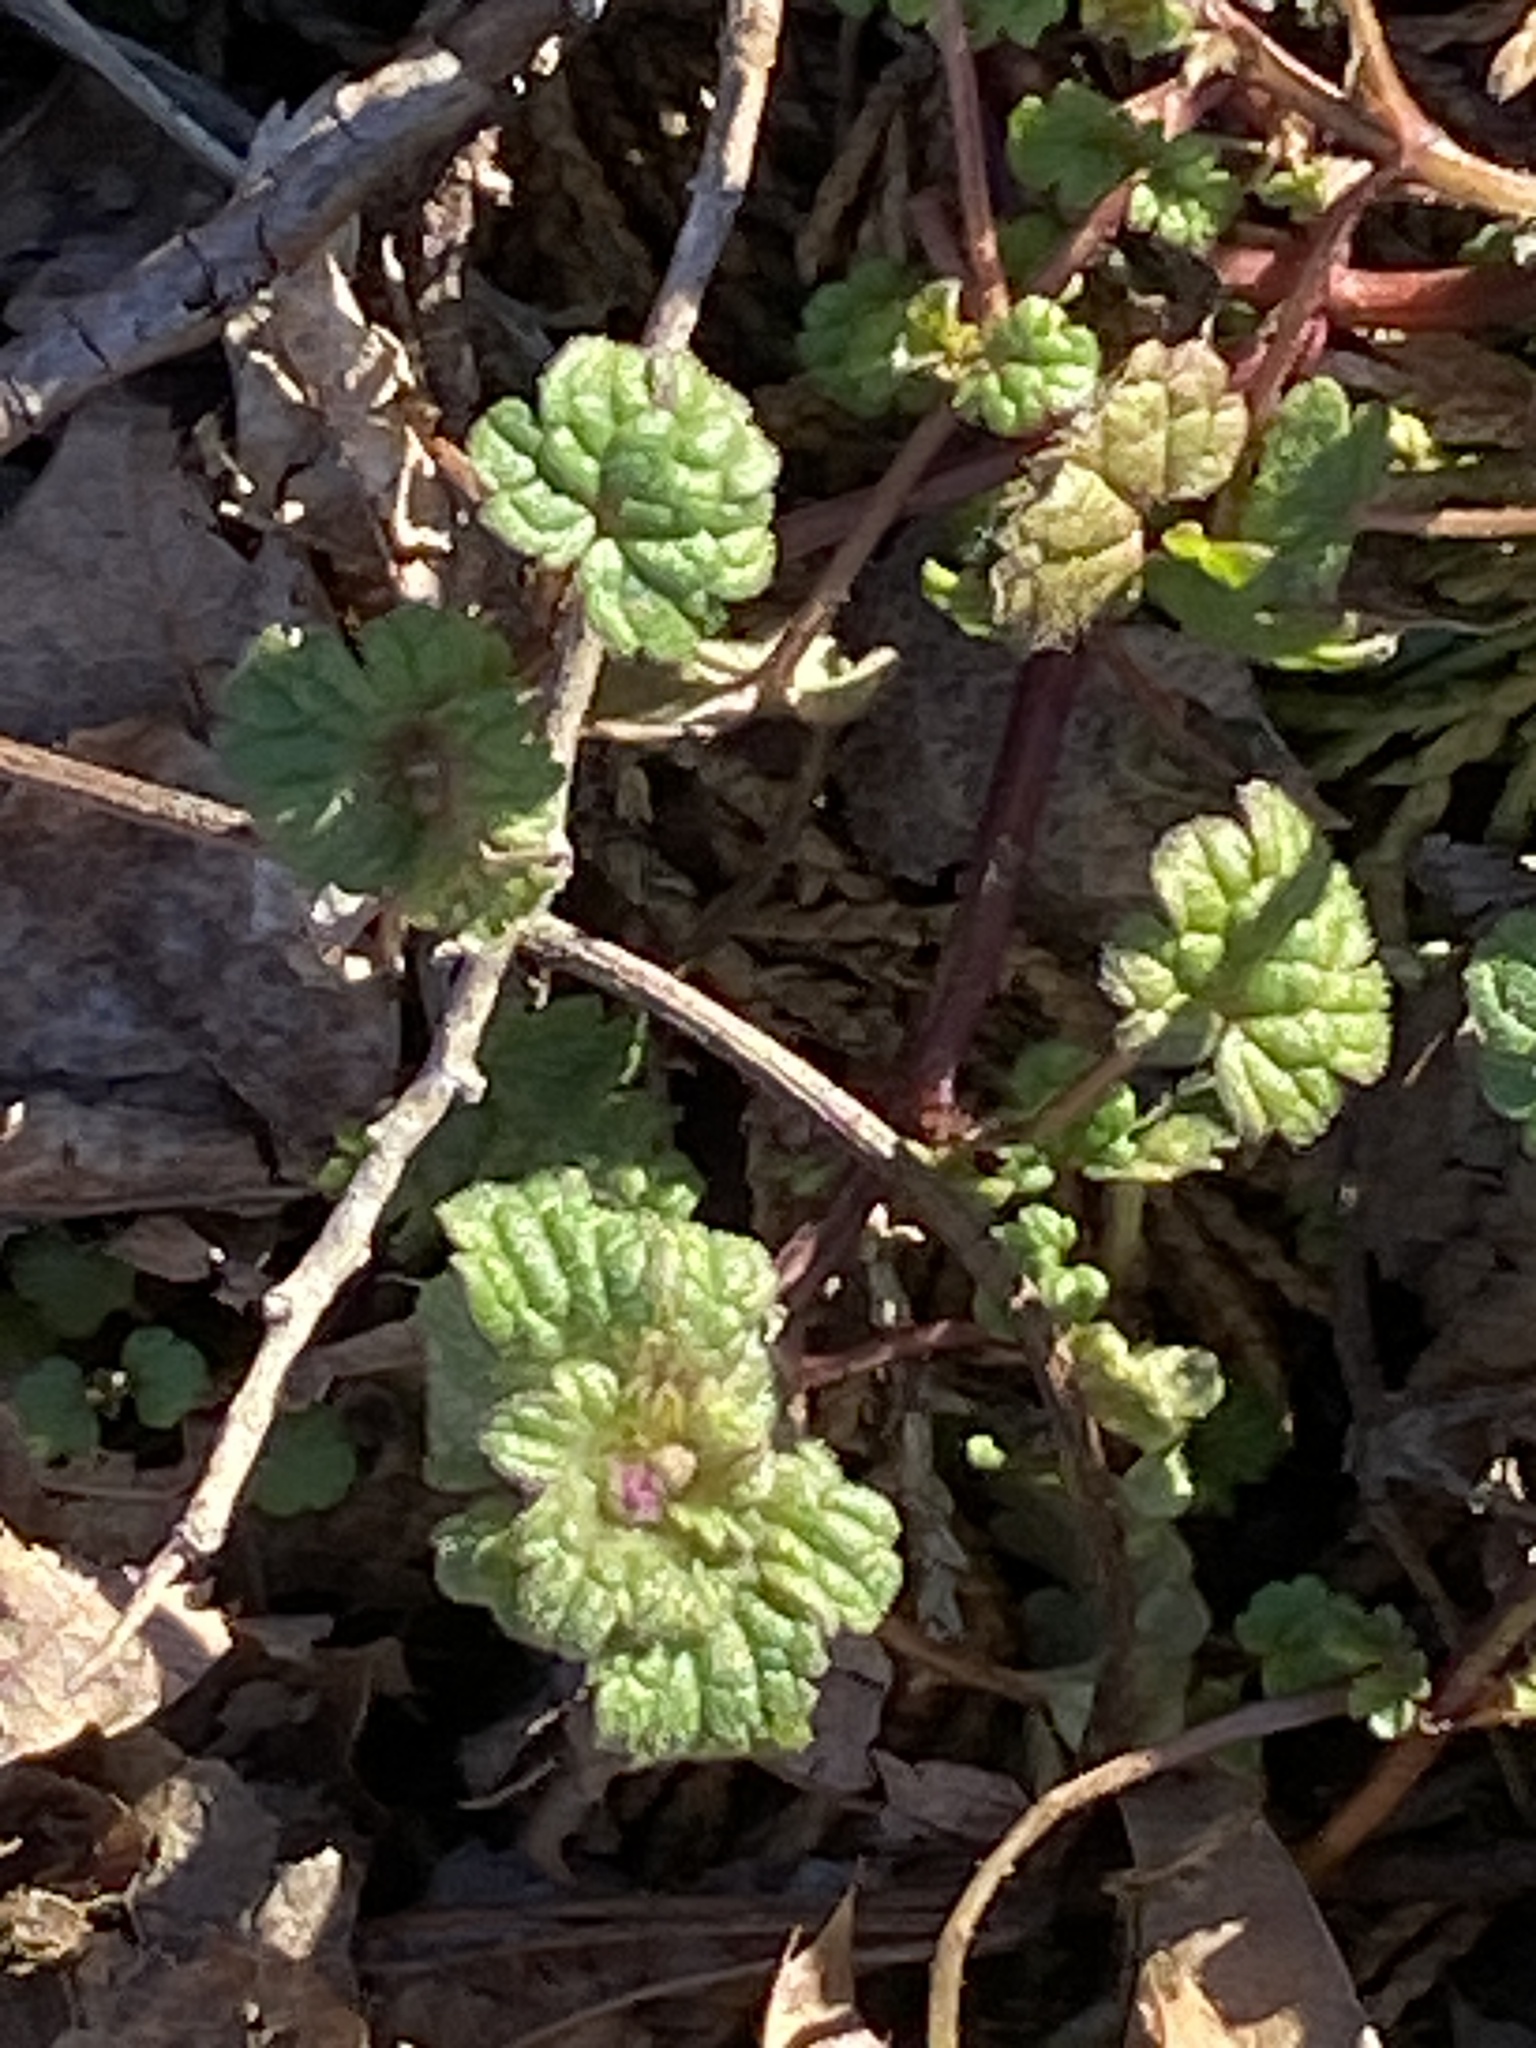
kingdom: Plantae
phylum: Tracheophyta
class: Magnoliopsida
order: Lamiales
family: Lamiaceae
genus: Lamium
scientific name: Lamium amplexicaule
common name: Henbit dead-nettle
